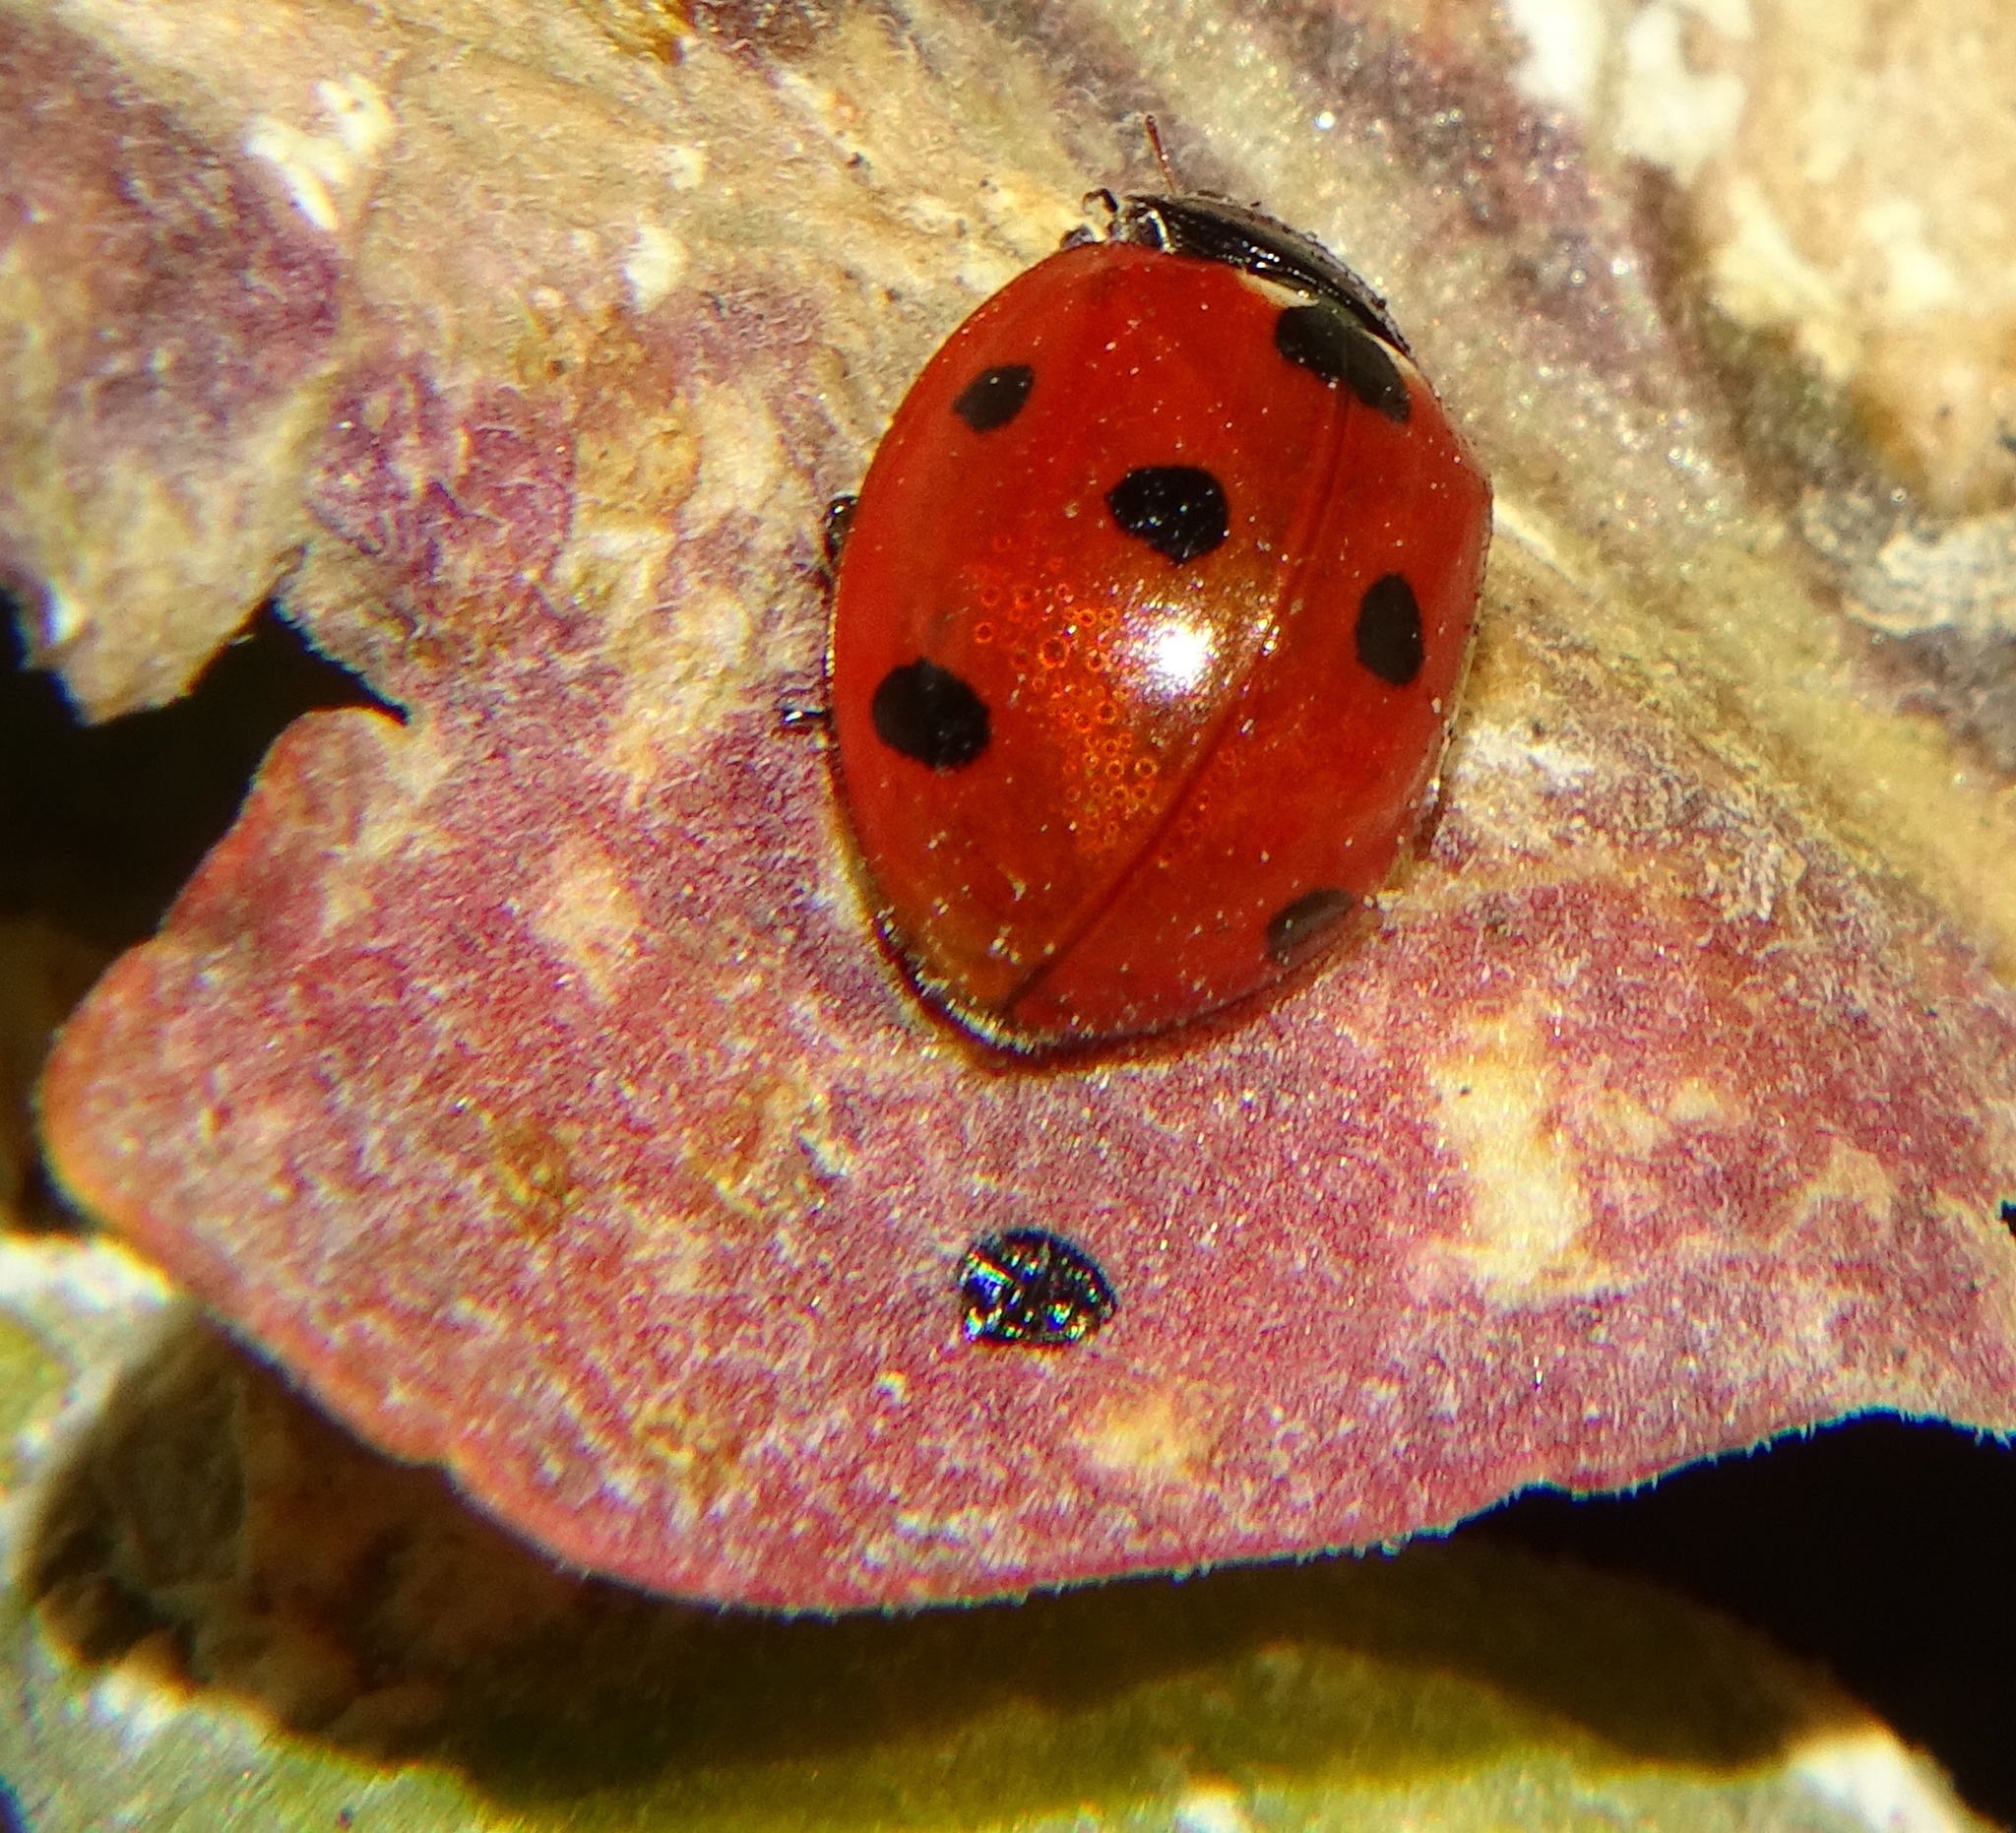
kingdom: Animalia
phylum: Arthropoda
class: Insecta
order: Coleoptera
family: Coccinellidae
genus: Coccinella
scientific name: Coccinella septempunctata
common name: Sevenspotted lady beetle
